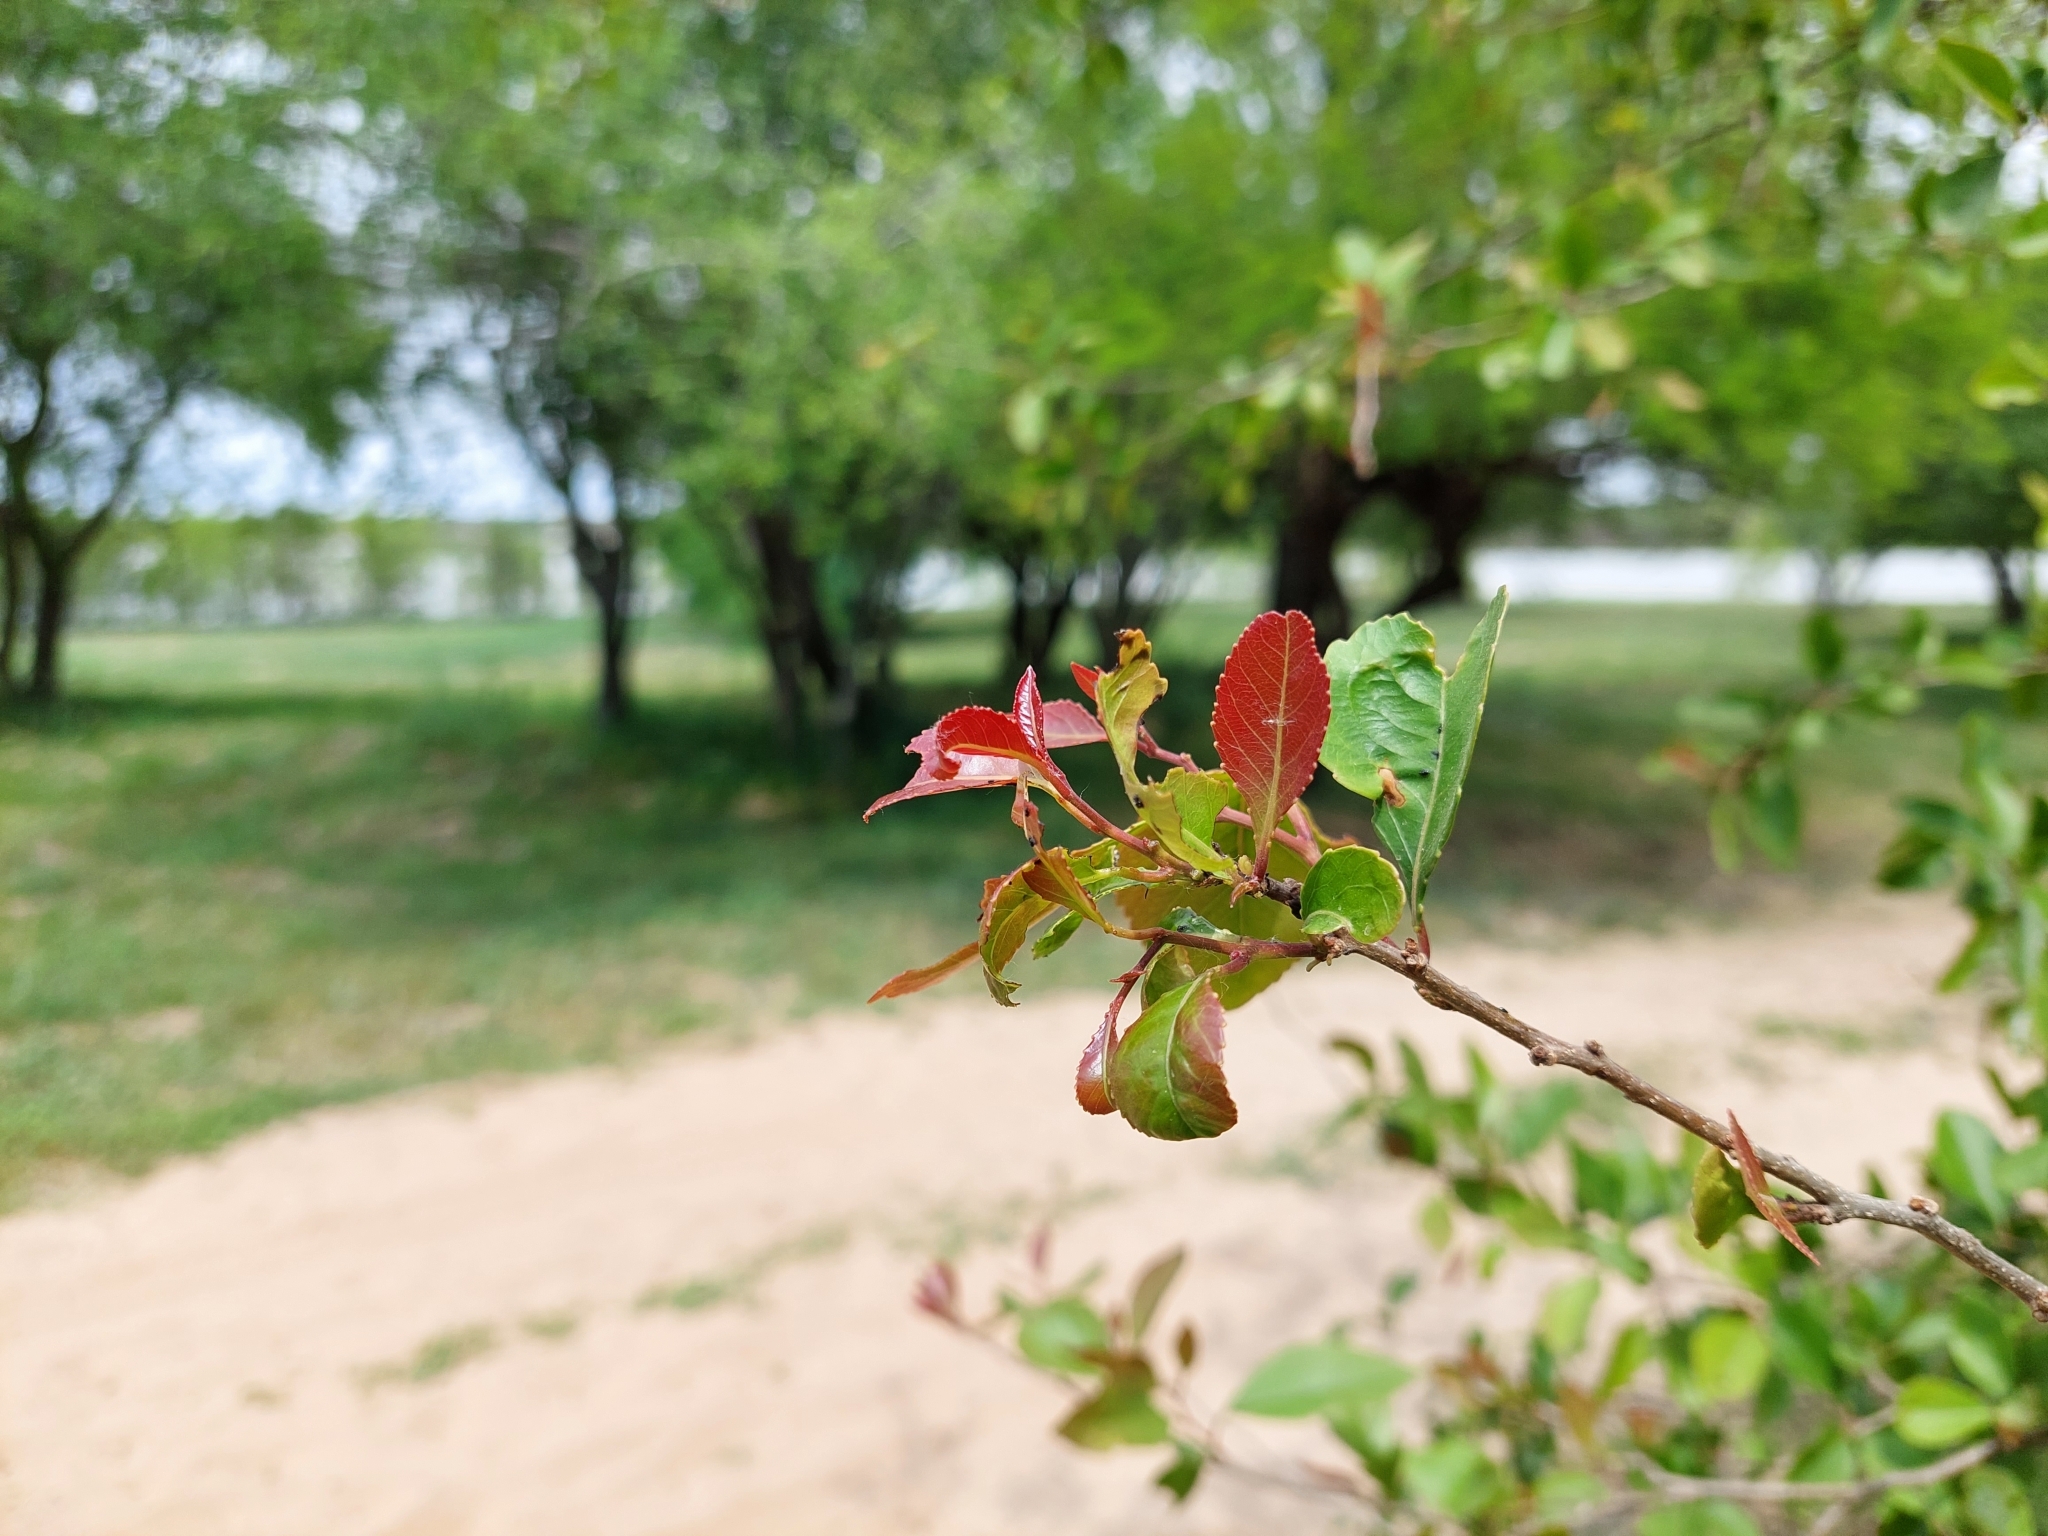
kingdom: Plantae
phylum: Tracheophyta
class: Magnoliopsida
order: Malpighiales
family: Salicaceae
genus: Xylosma
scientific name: Xylosma venosa
